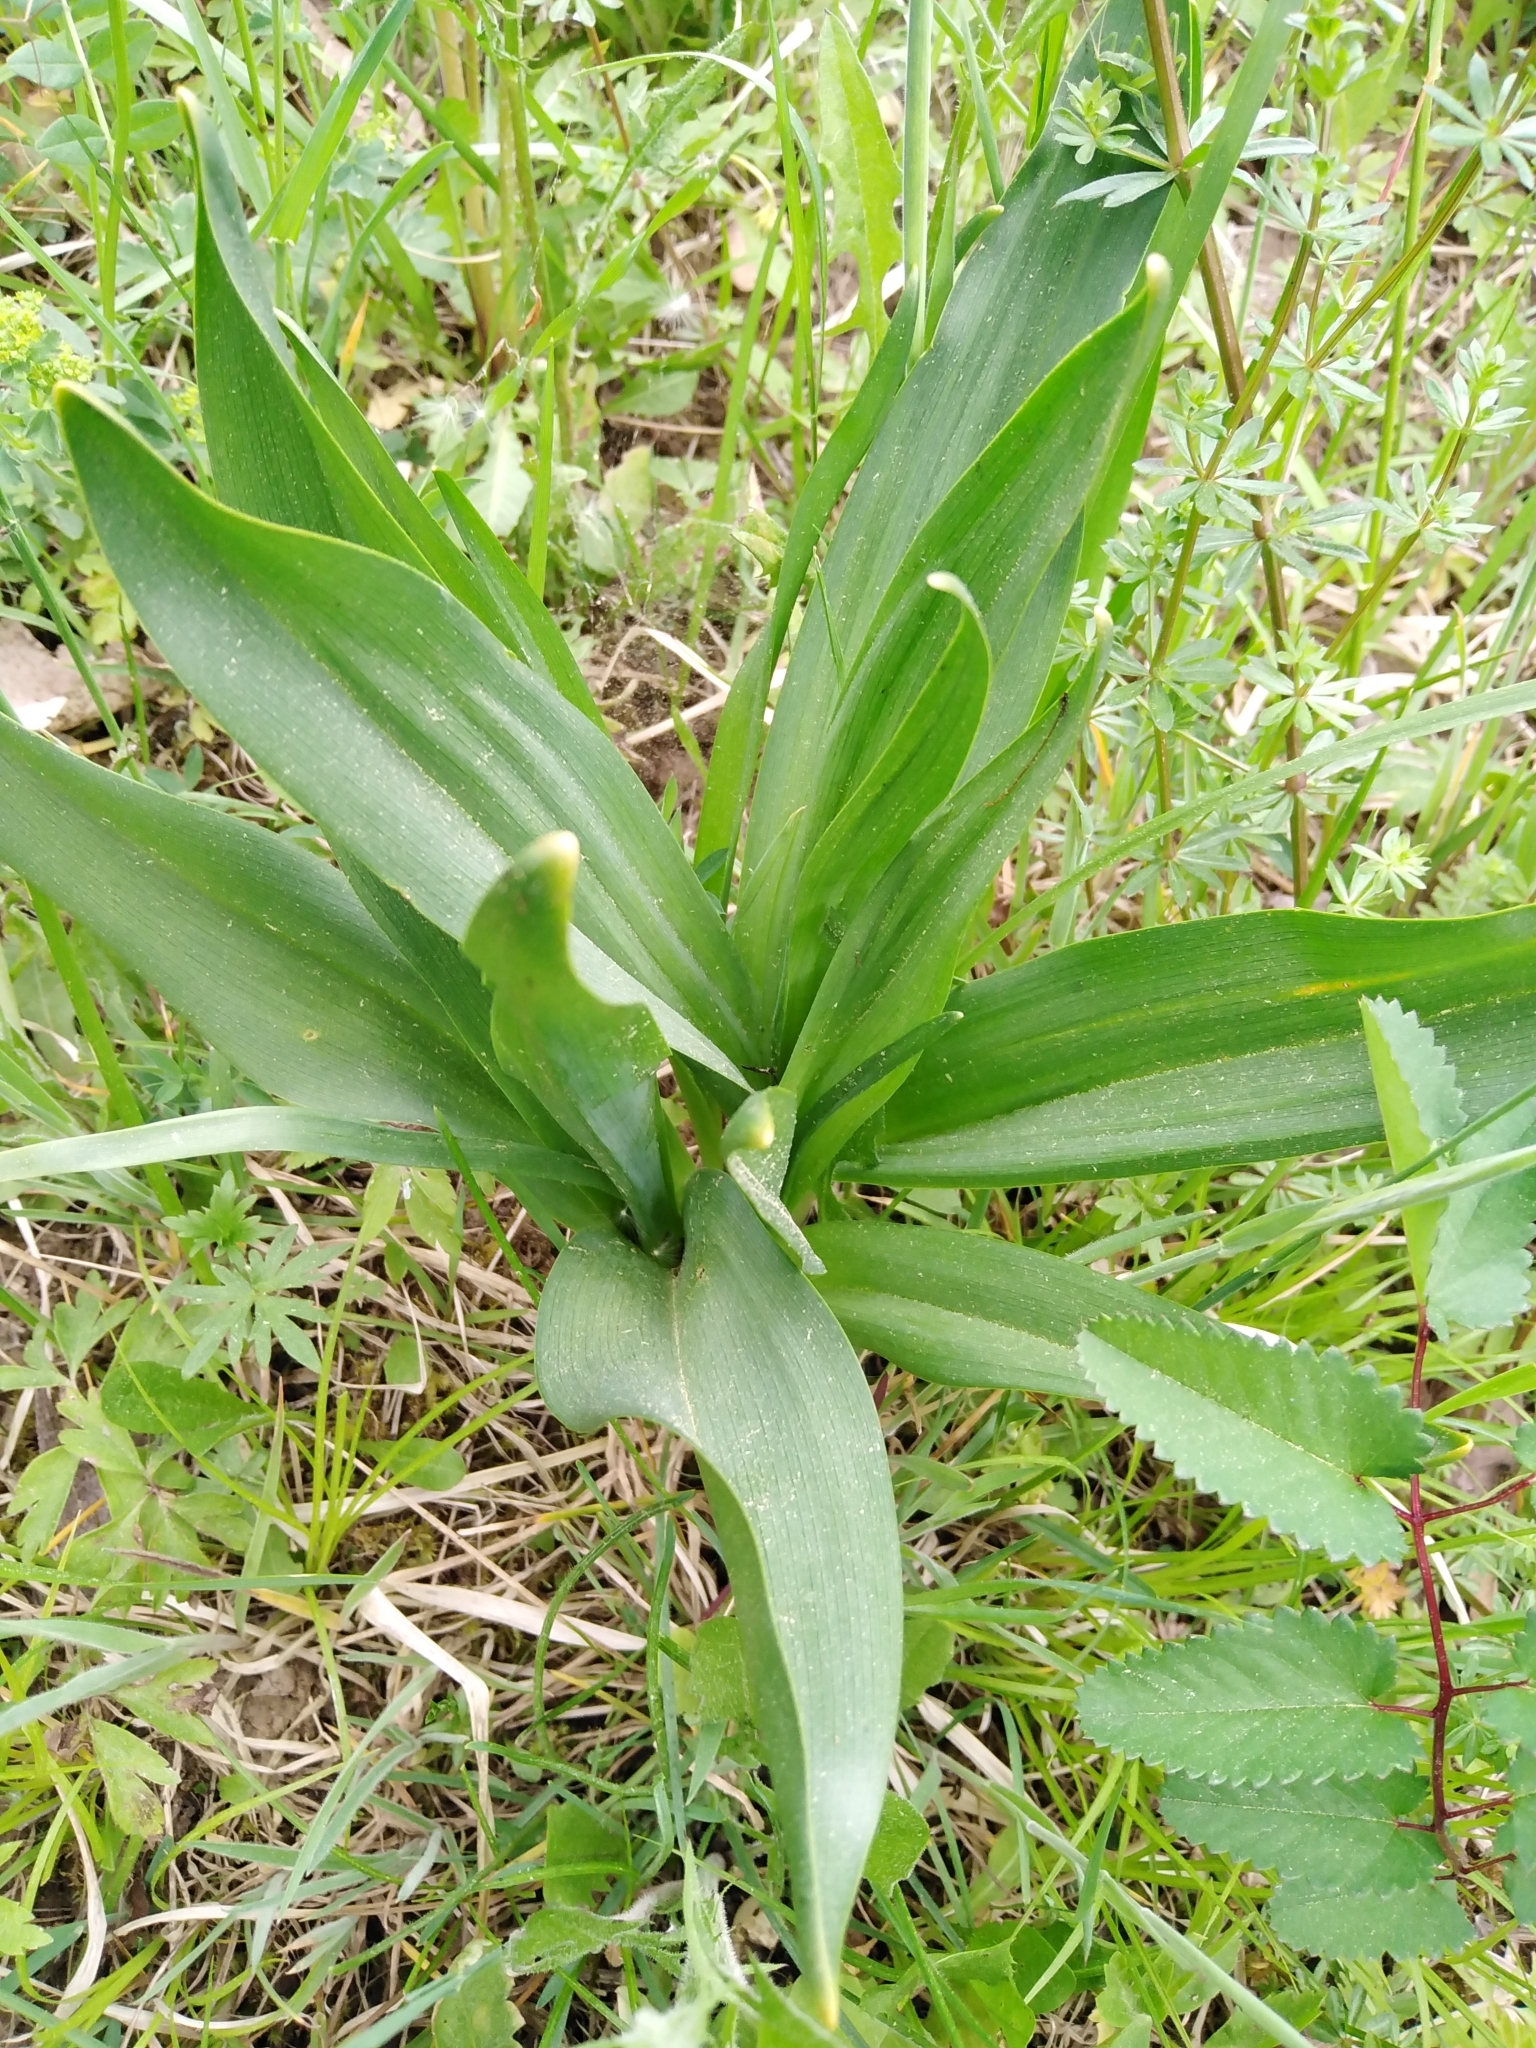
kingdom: Plantae
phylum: Tracheophyta
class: Liliopsida
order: Liliales
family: Colchicaceae
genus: Colchicum
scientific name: Colchicum autumnale
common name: Autumn crocus
